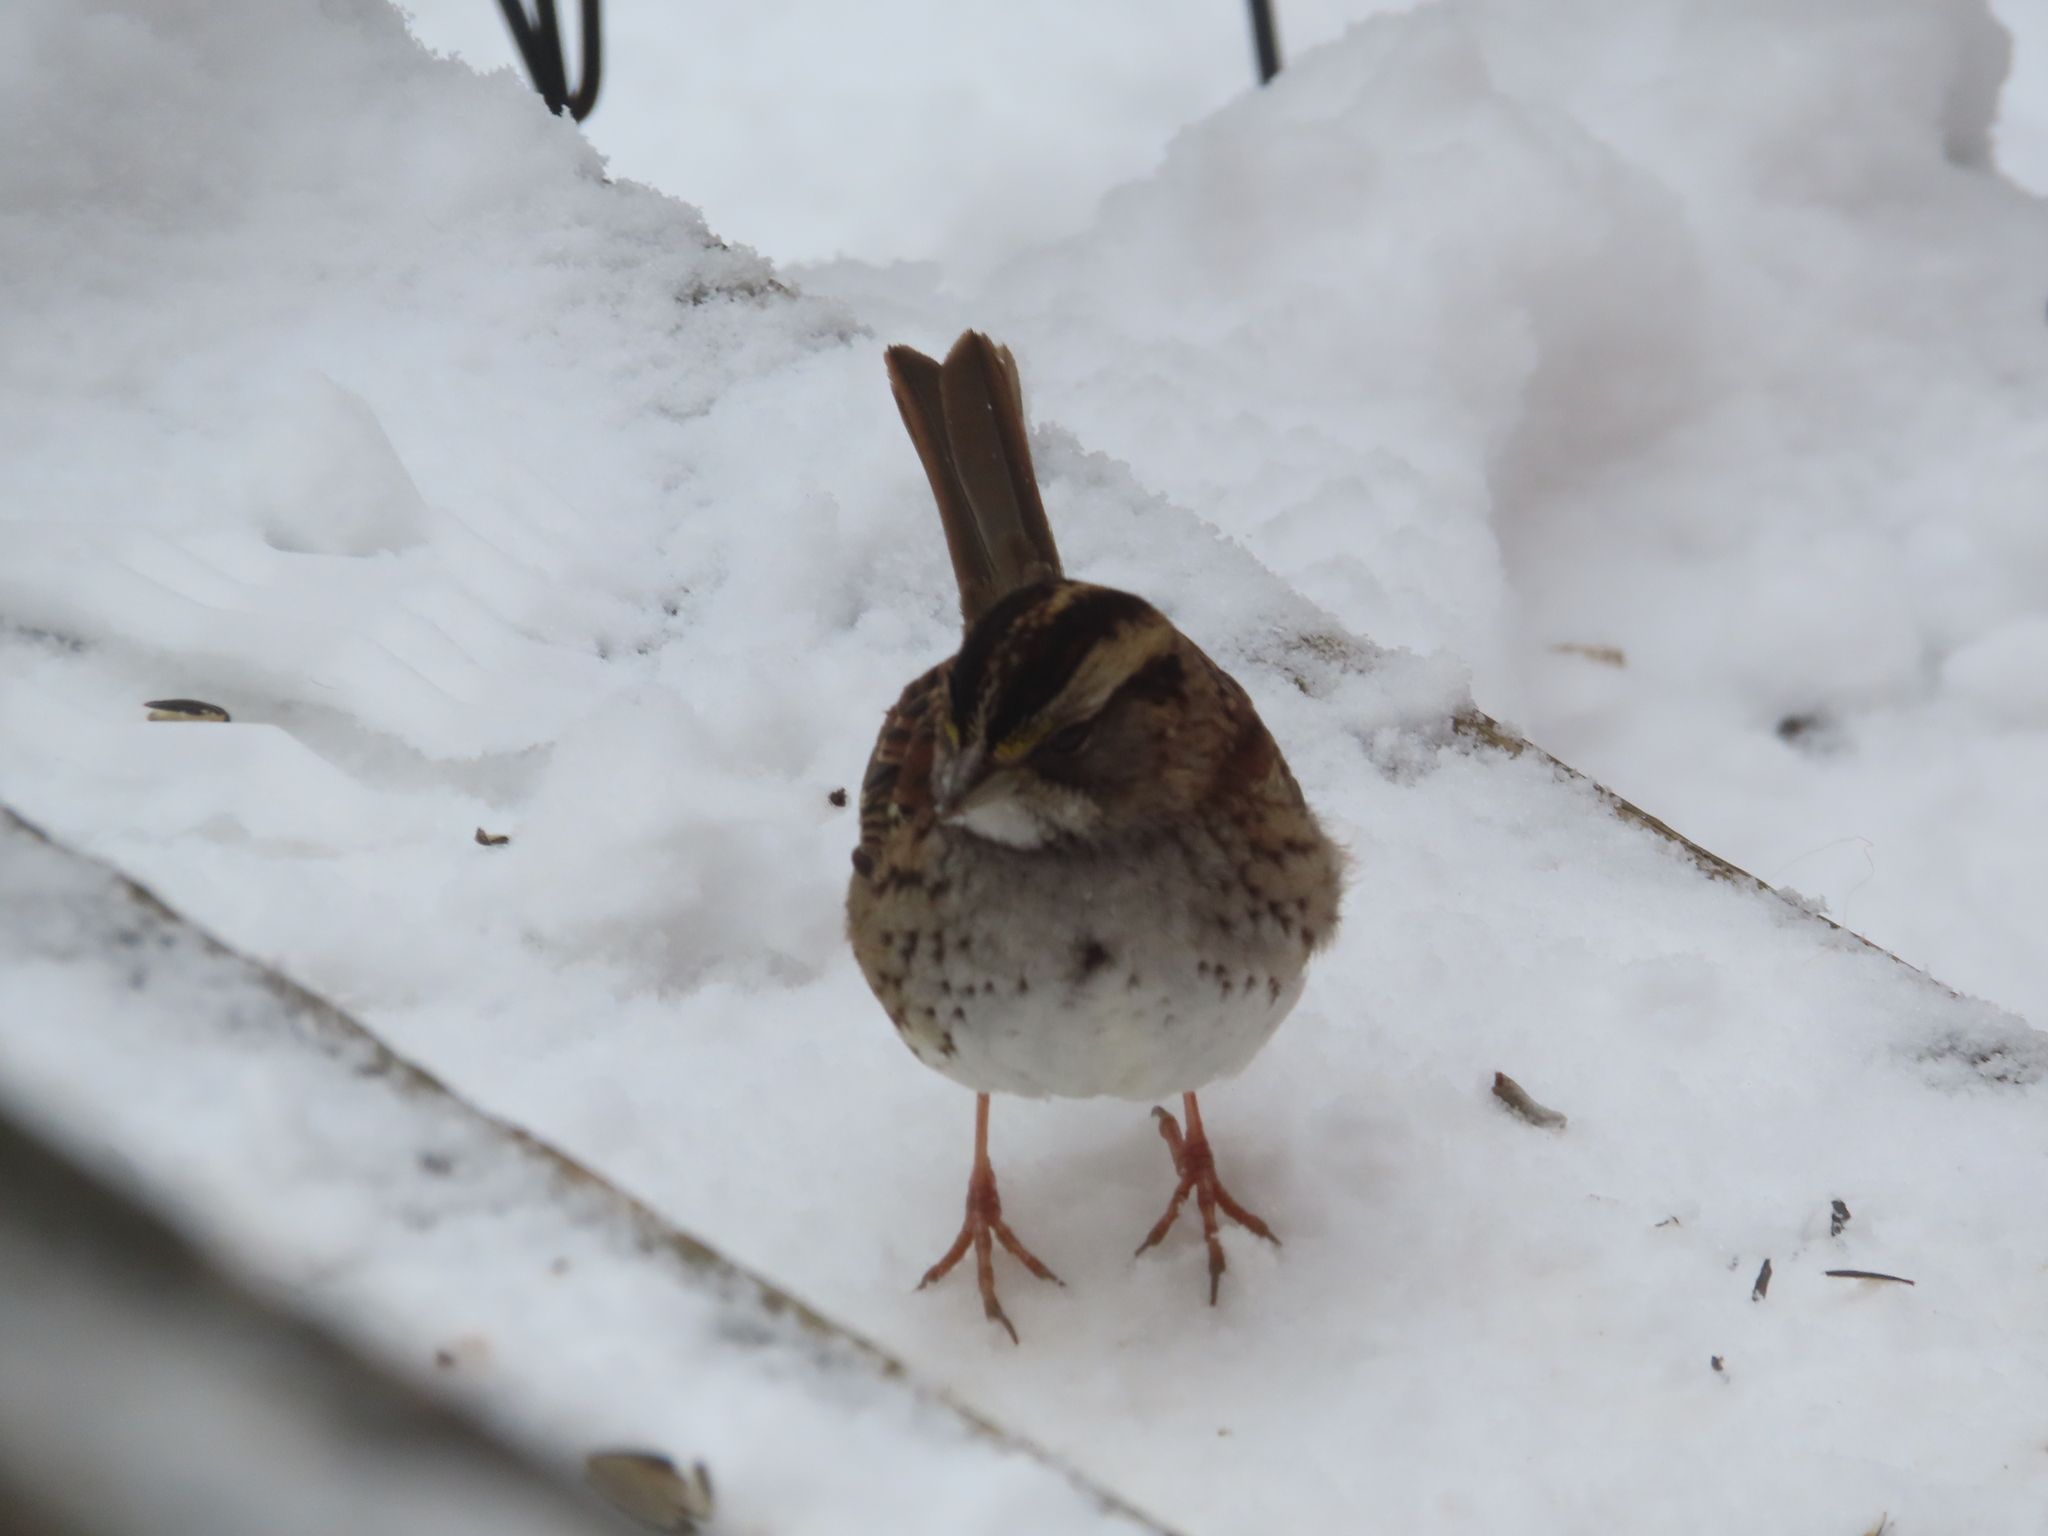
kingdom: Animalia
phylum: Chordata
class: Aves
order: Passeriformes
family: Passerellidae
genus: Zonotrichia
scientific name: Zonotrichia albicollis
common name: White-throated sparrow
